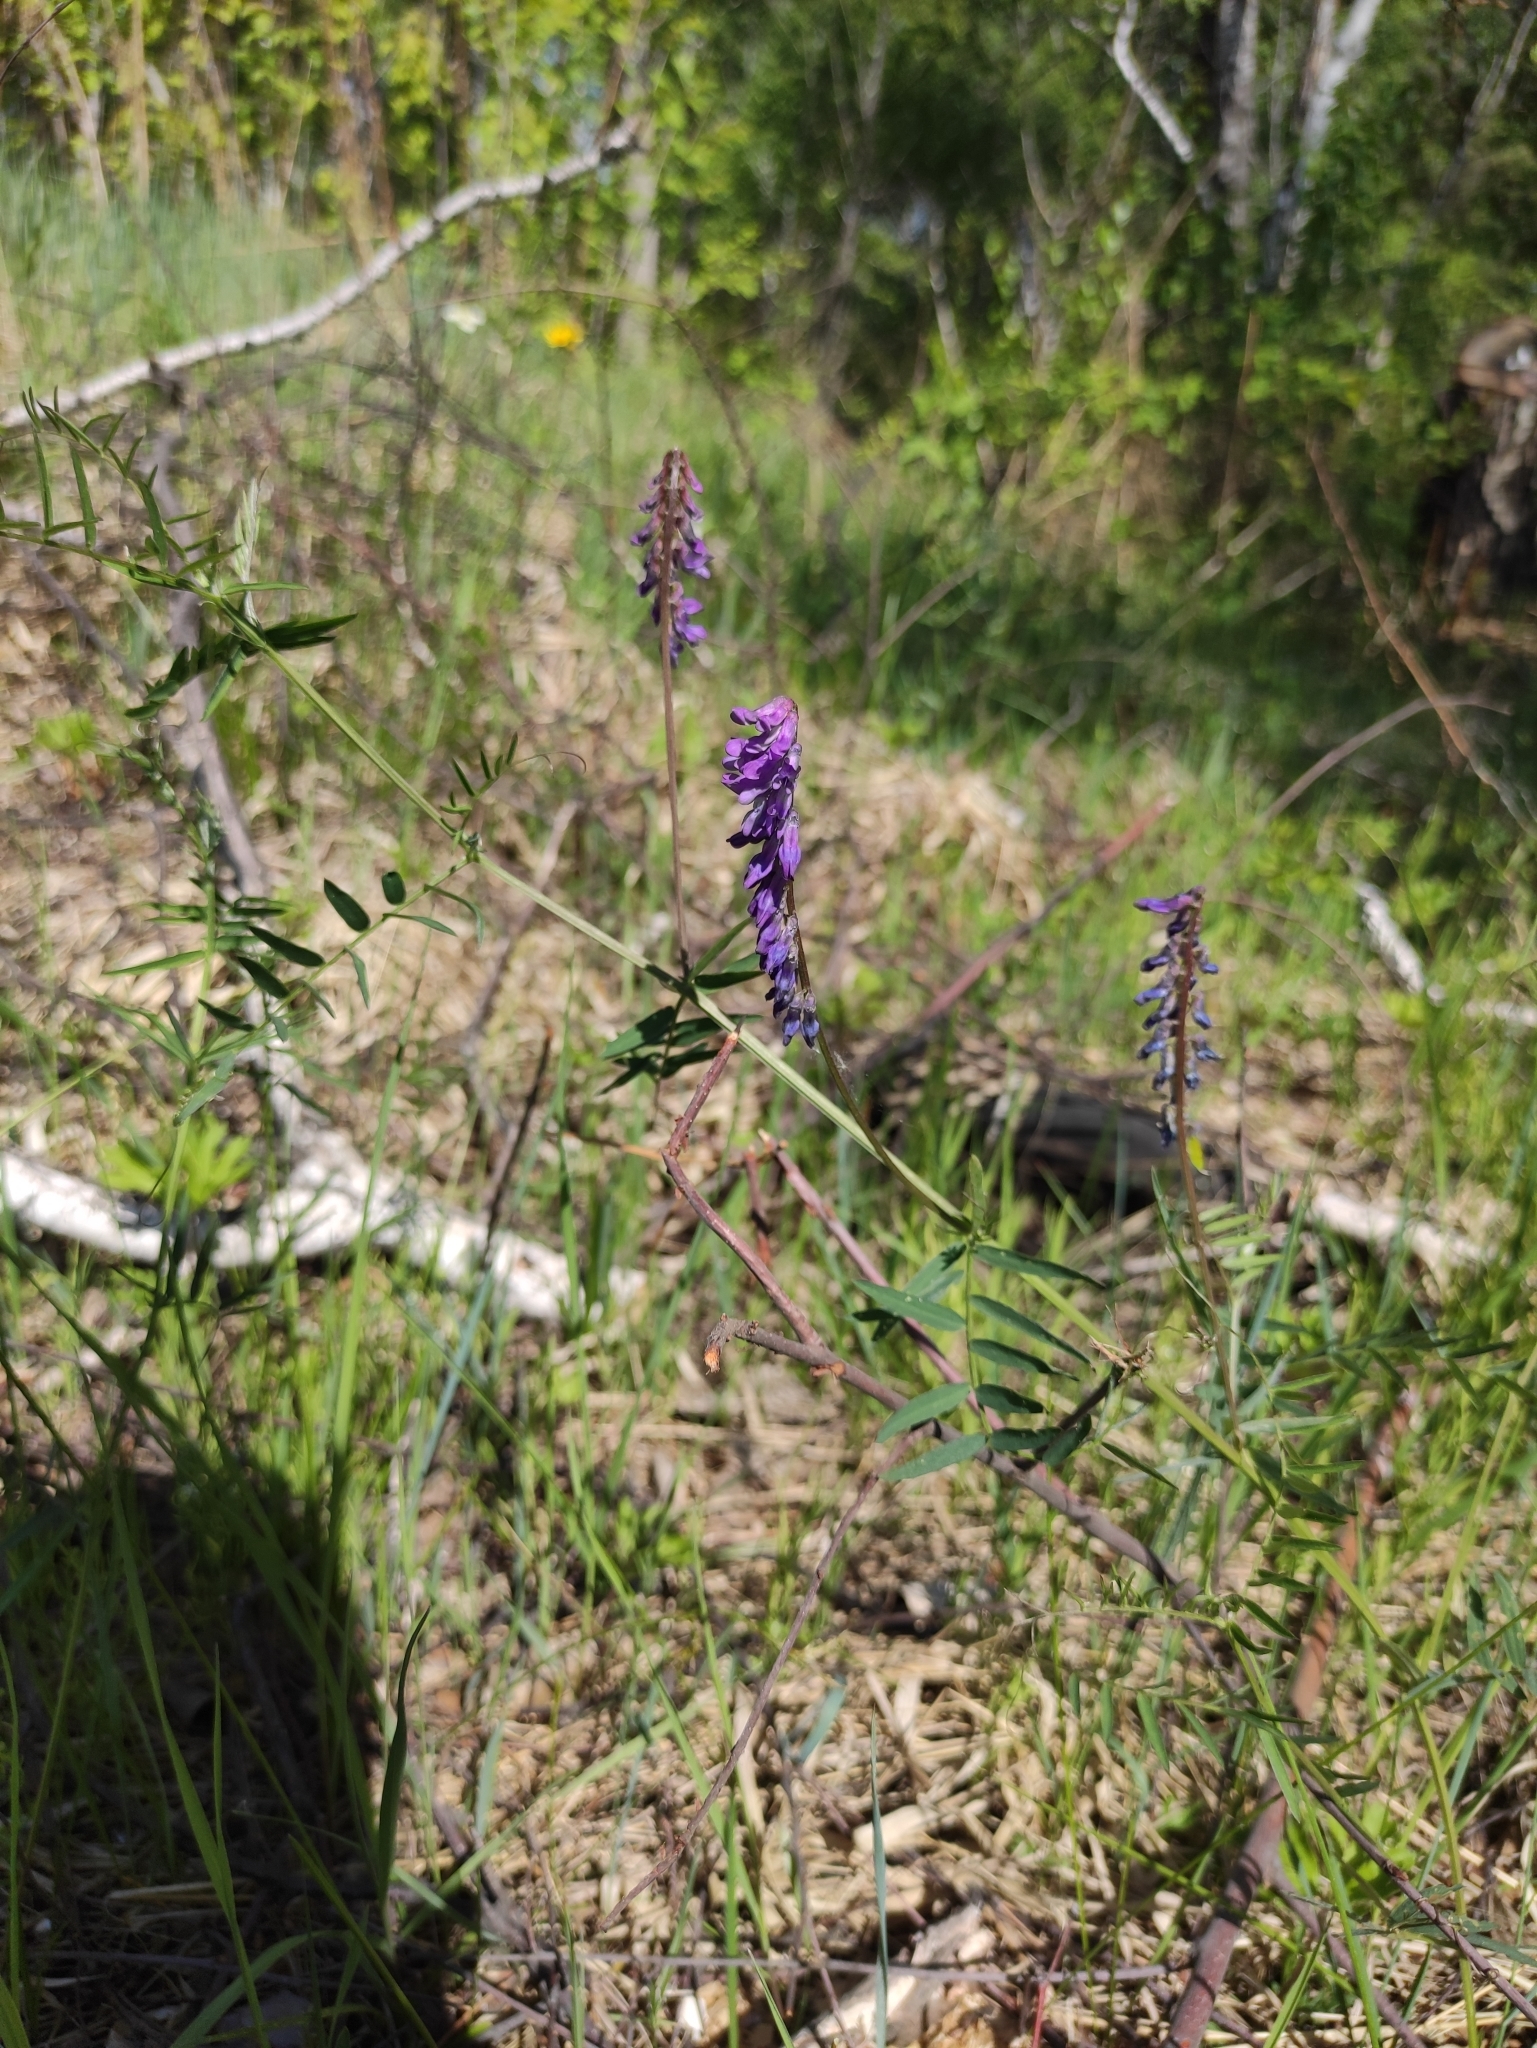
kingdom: Plantae
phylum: Tracheophyta
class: Magnoliopsida
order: Fabales
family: Fabaceae
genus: Vicia
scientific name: Vicia cracca
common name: Bird vetch
